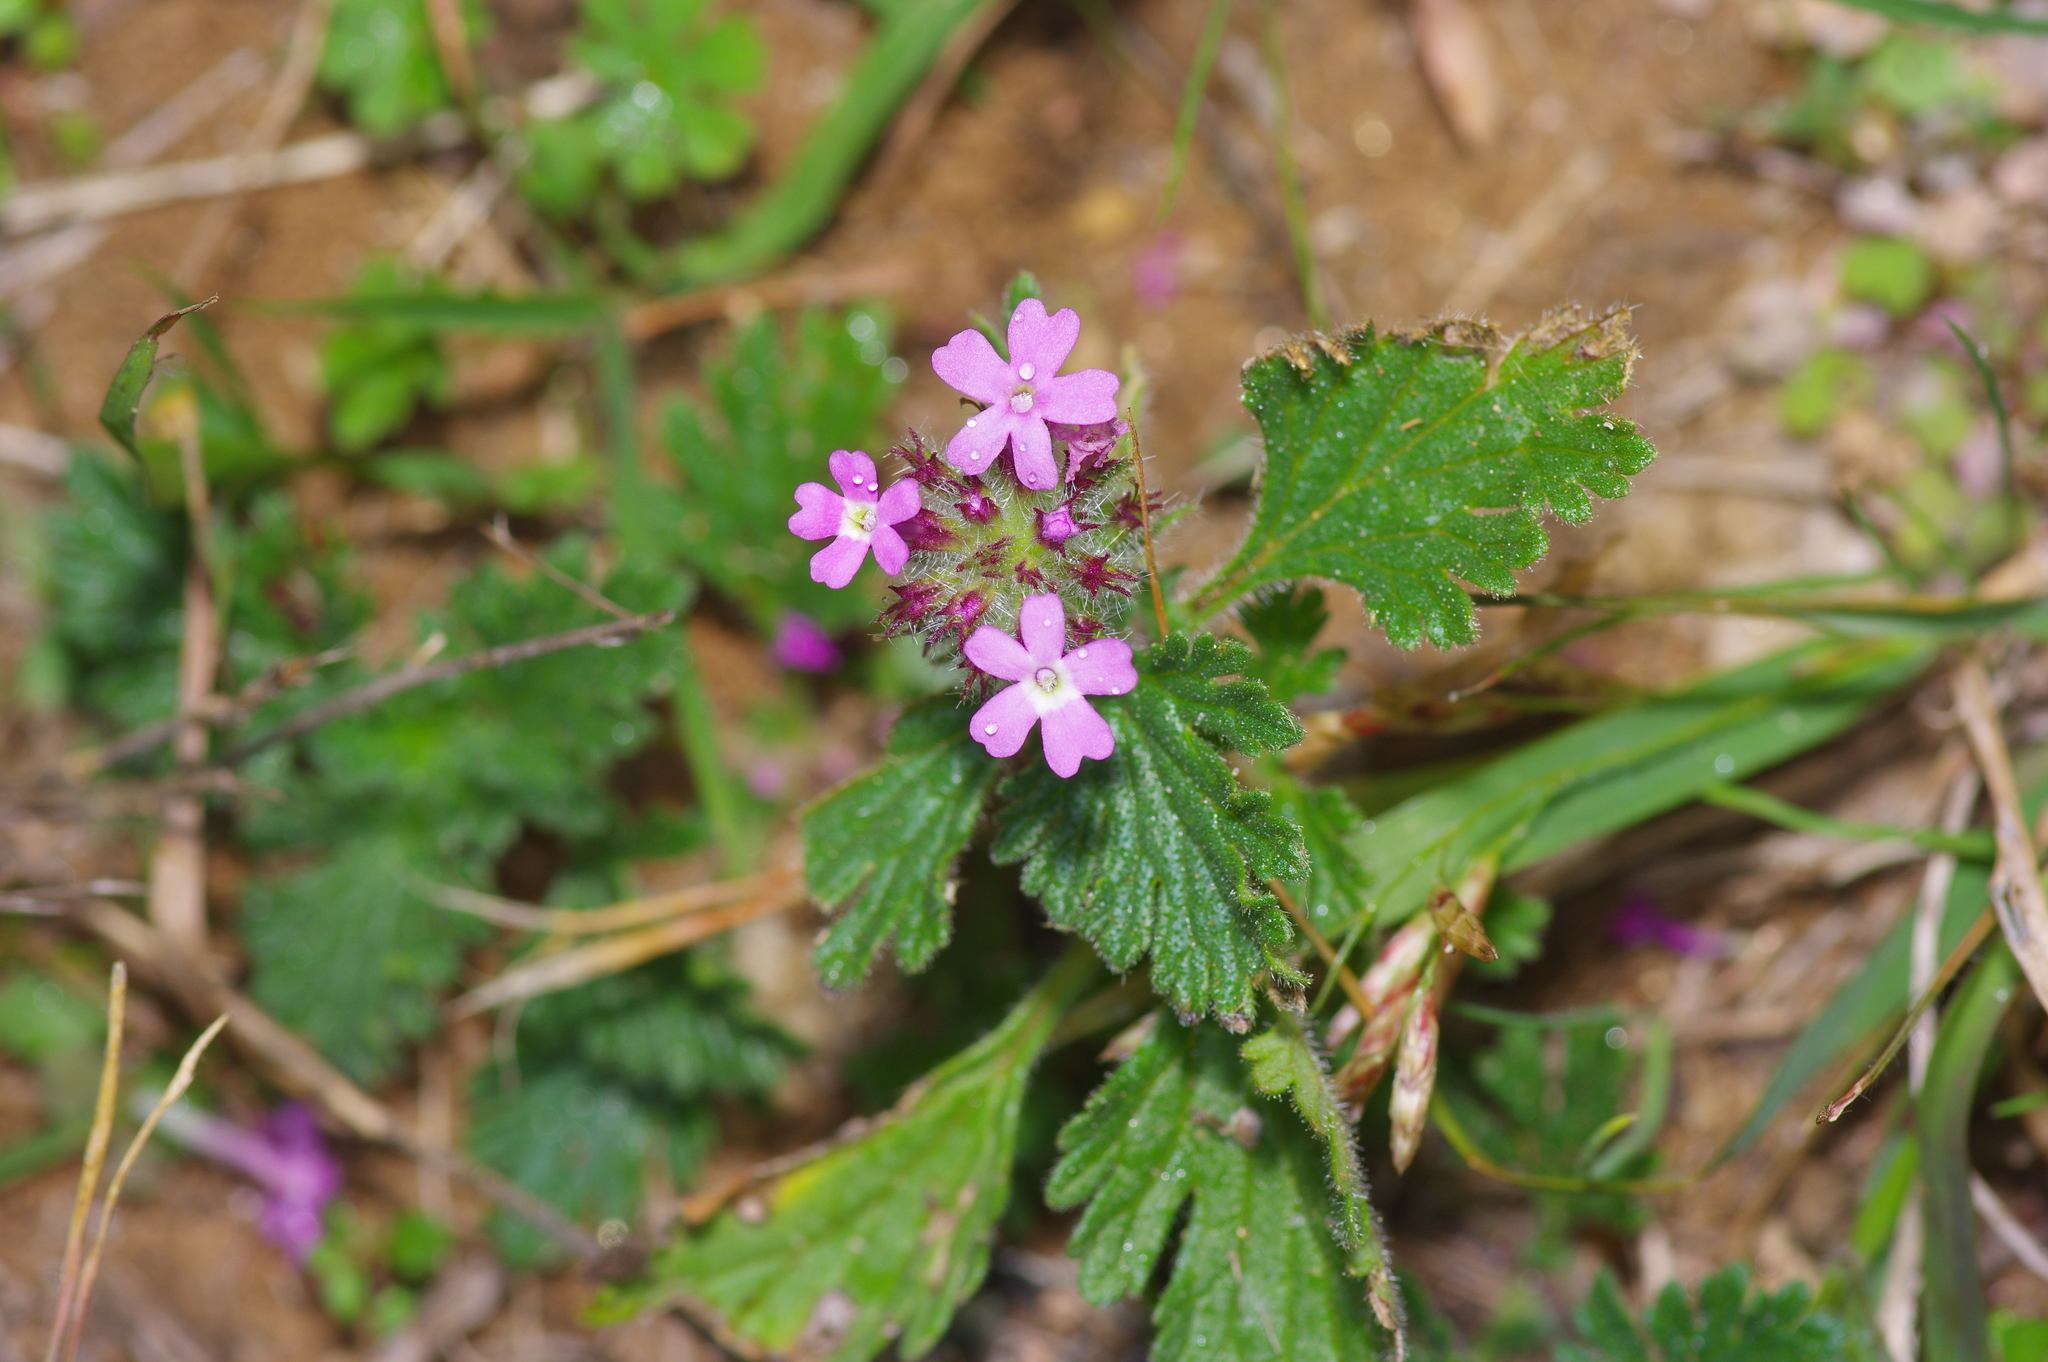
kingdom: Plantae
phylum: Tracheophyta
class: Magnoliopsida
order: Lamiales
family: Verbenaceae
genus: Verbena
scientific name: Verbena pumila
